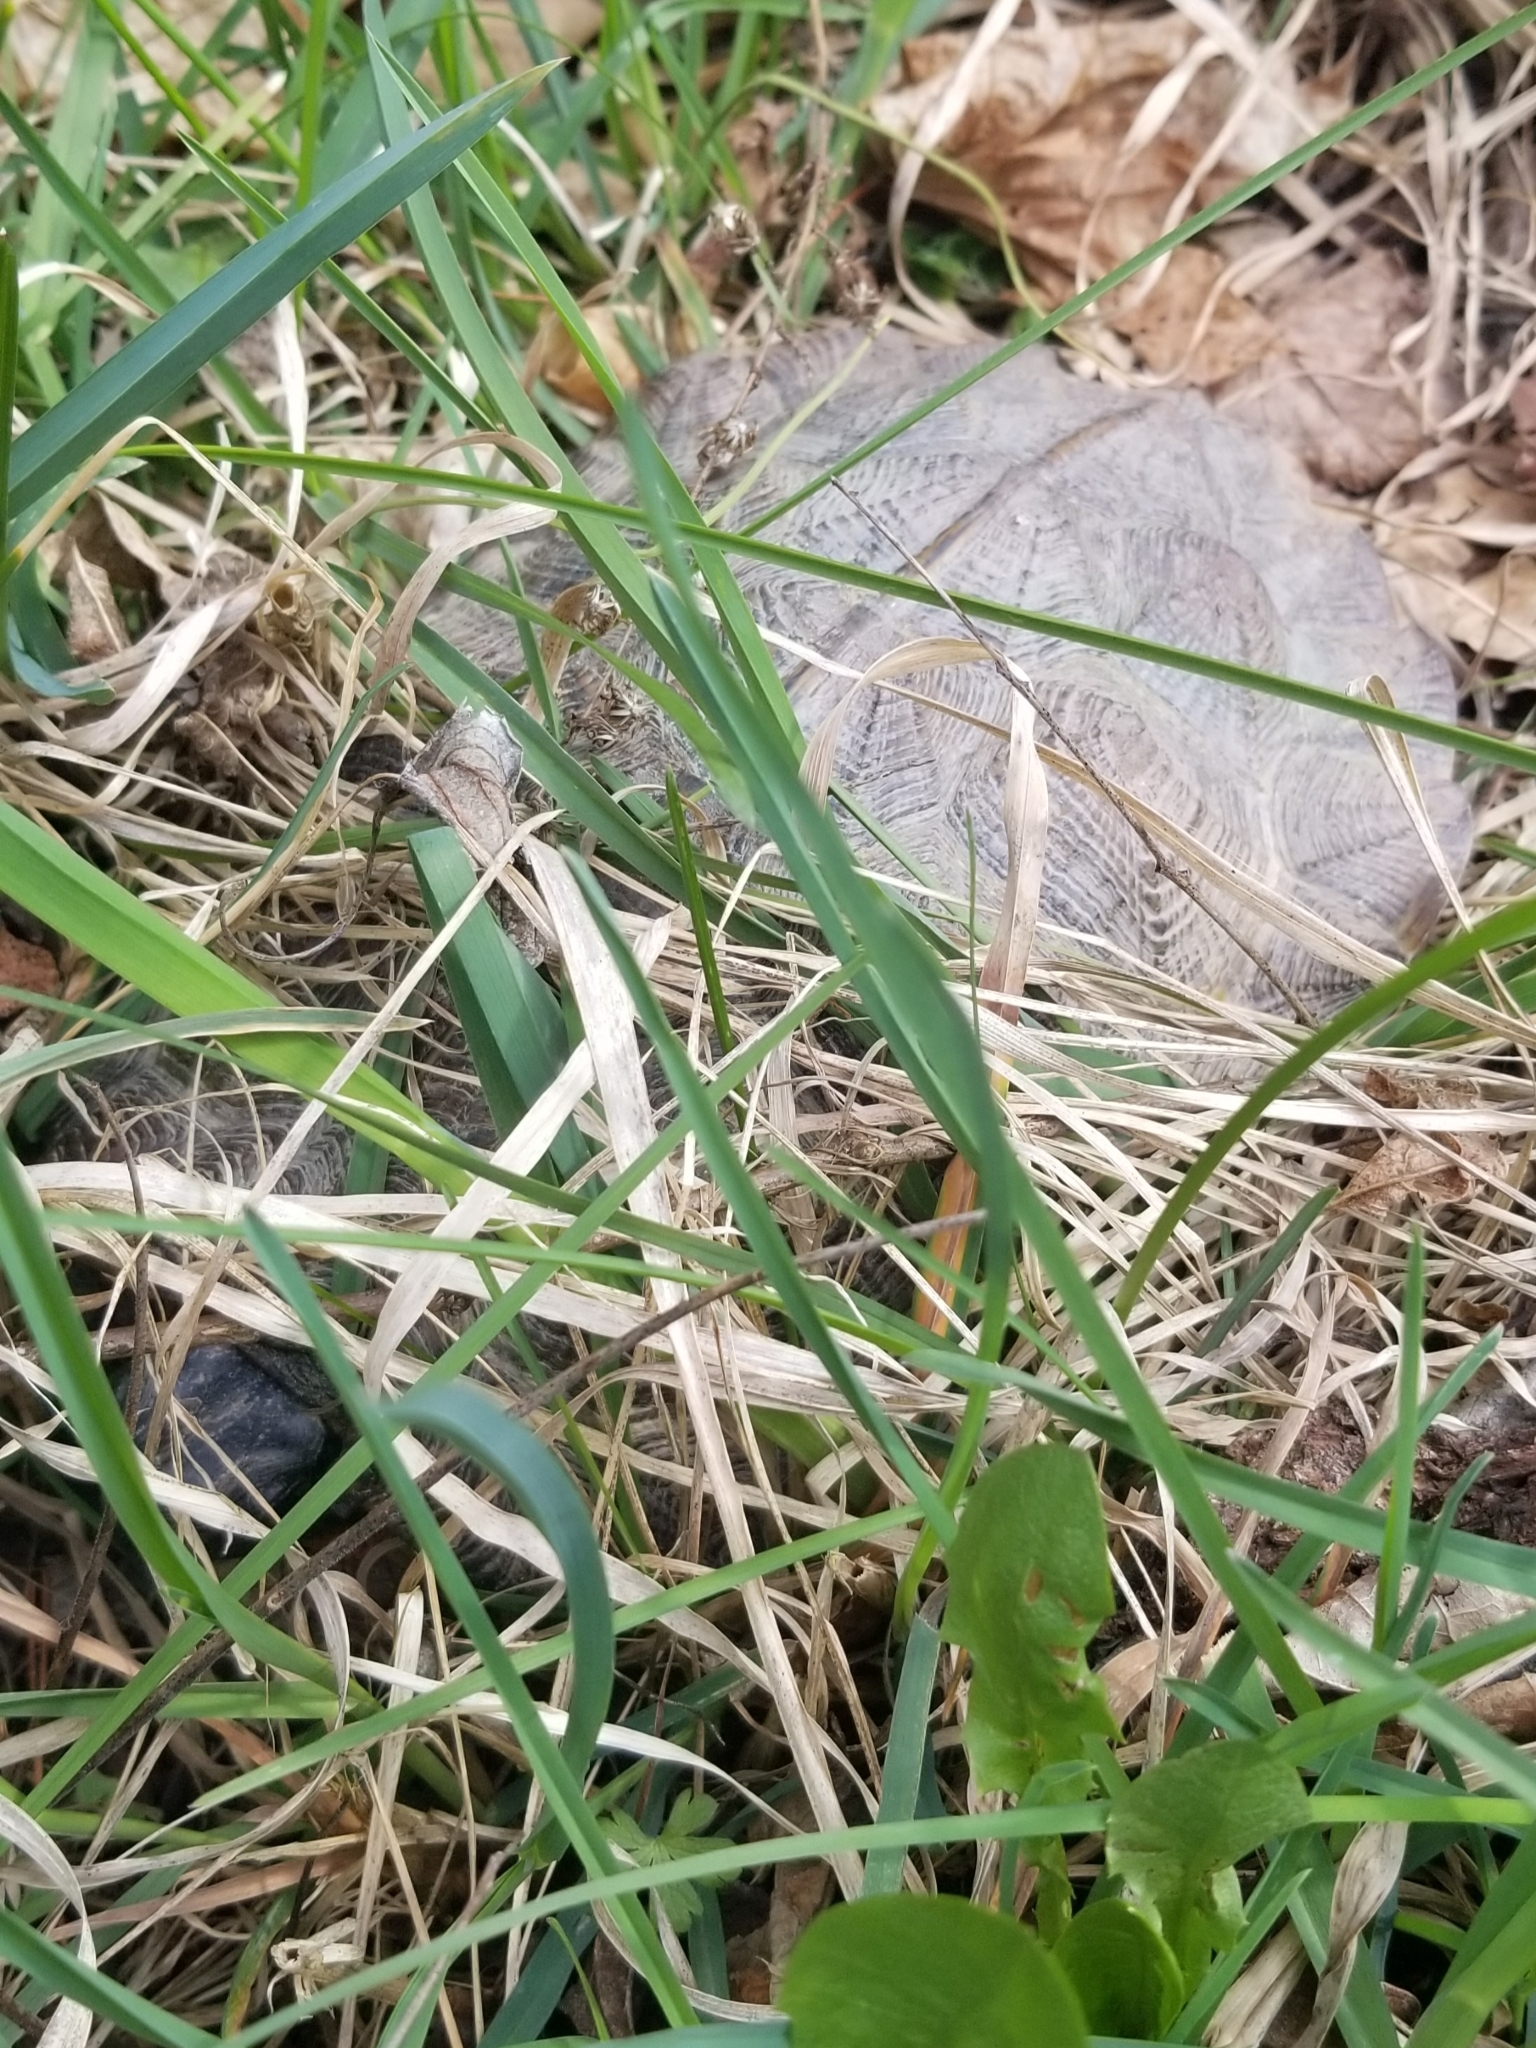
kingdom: Animalia
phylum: Chordata
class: Testudines
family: Emydidae
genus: Glyptemys
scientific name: Glyptemys insculpta
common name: Wood turtle
